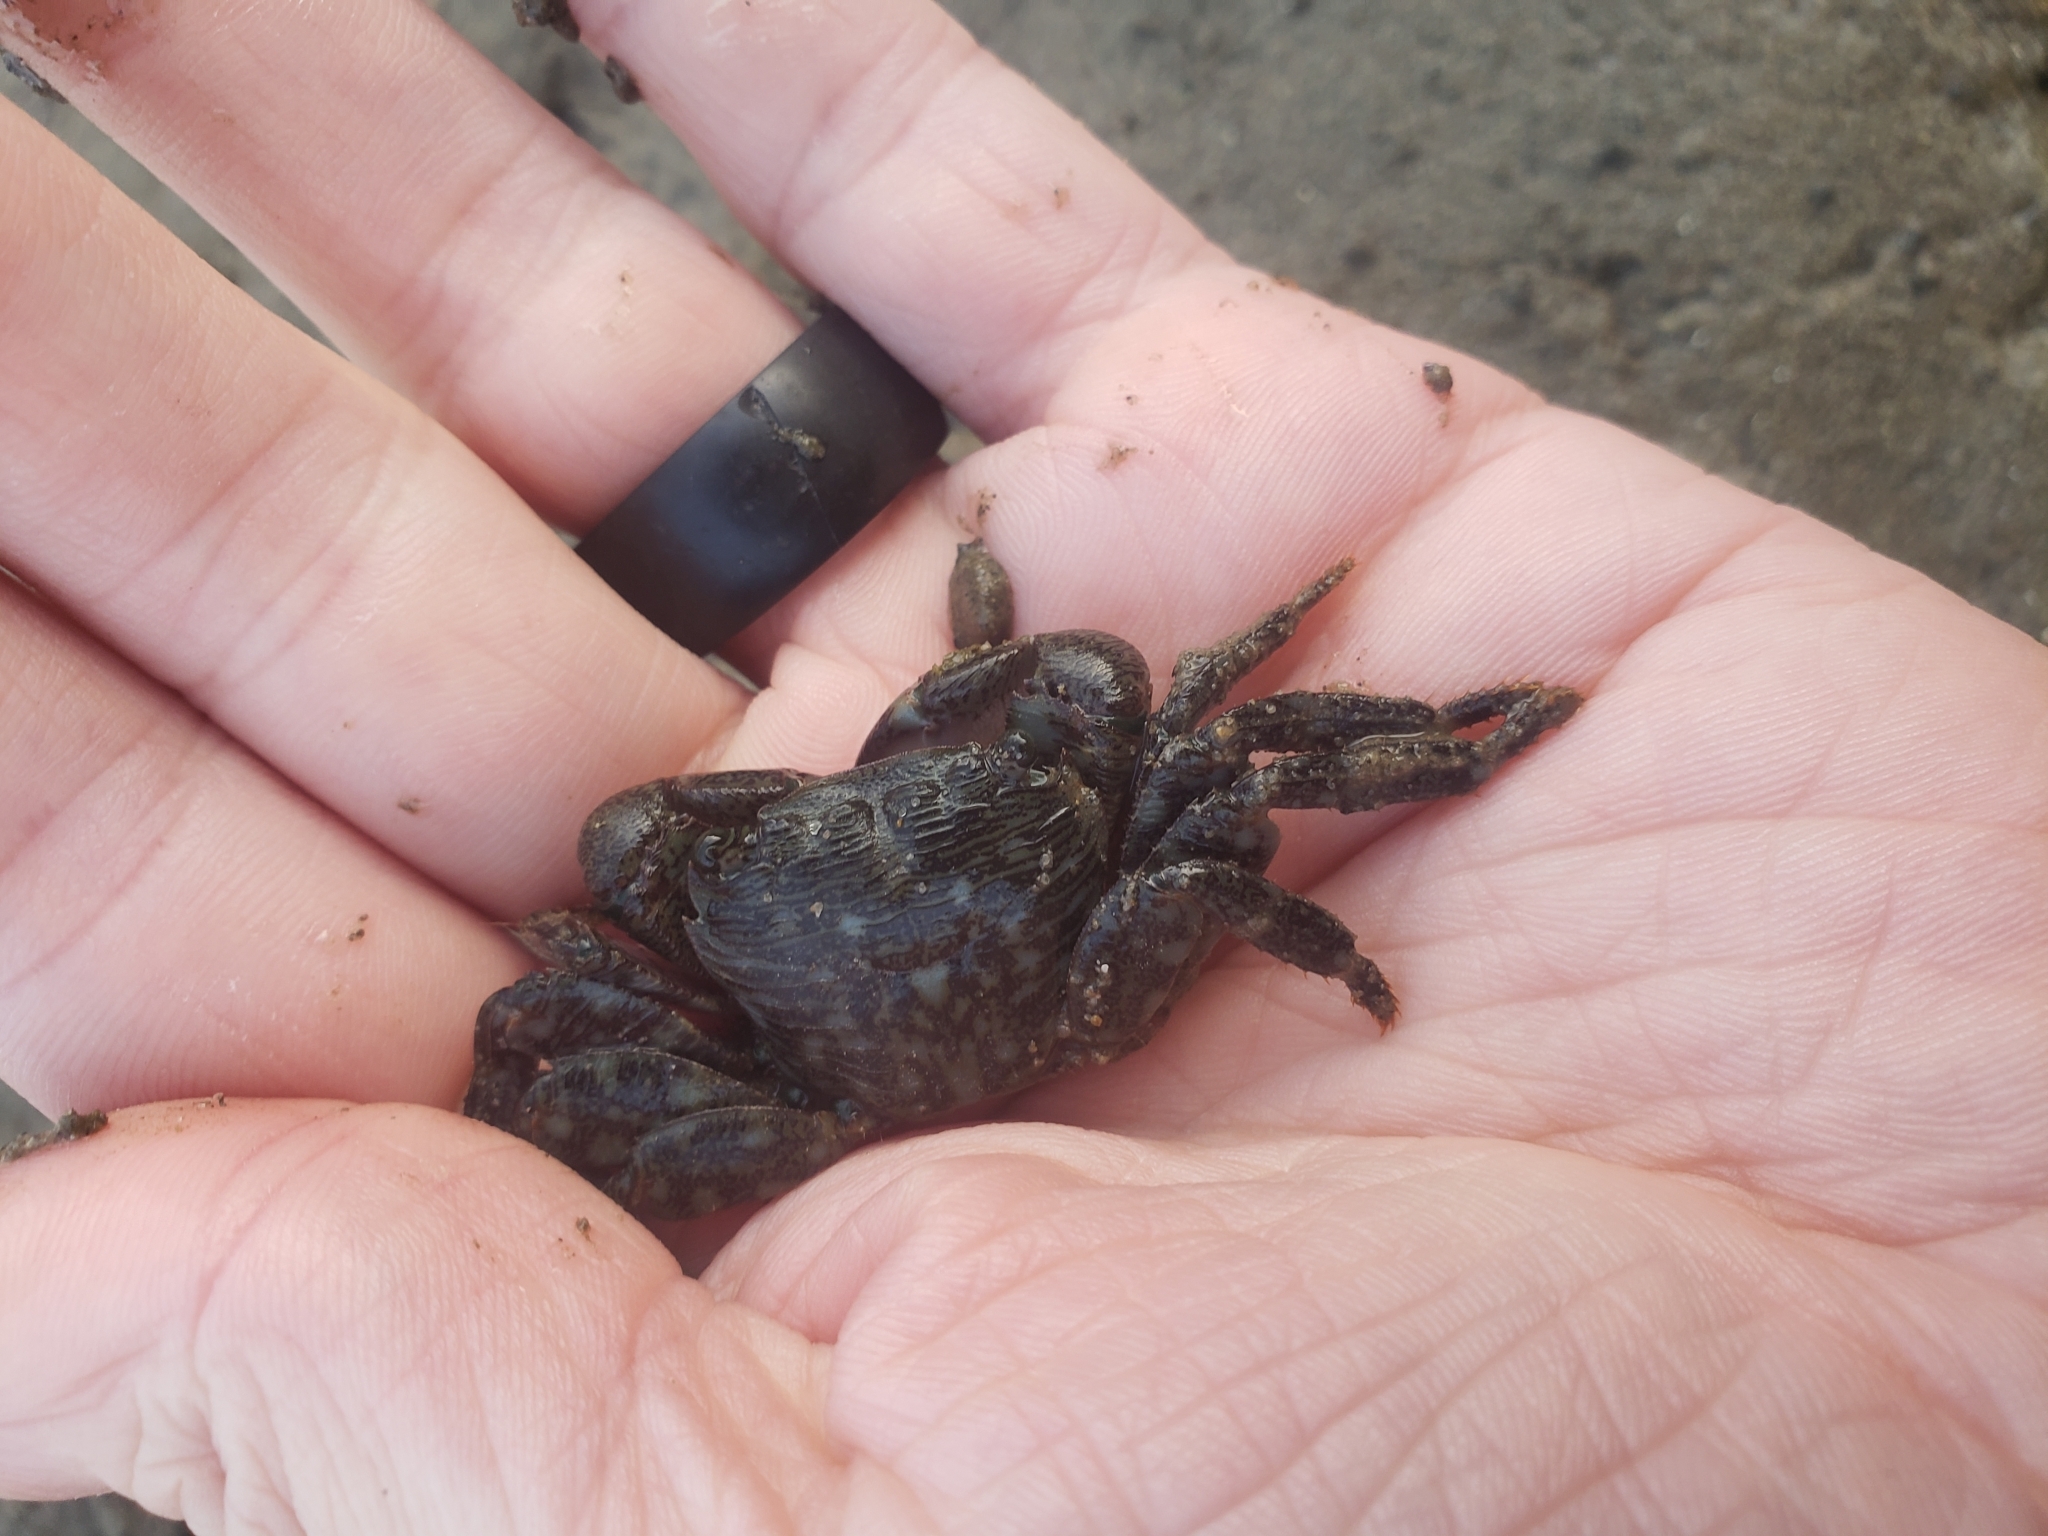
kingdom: Animalia
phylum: Arthropoda
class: Malacostraca
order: Decapoda
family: Grapsidae
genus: Pachygrapsus
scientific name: Pachygrapsus crassipes
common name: Striped shore crab
